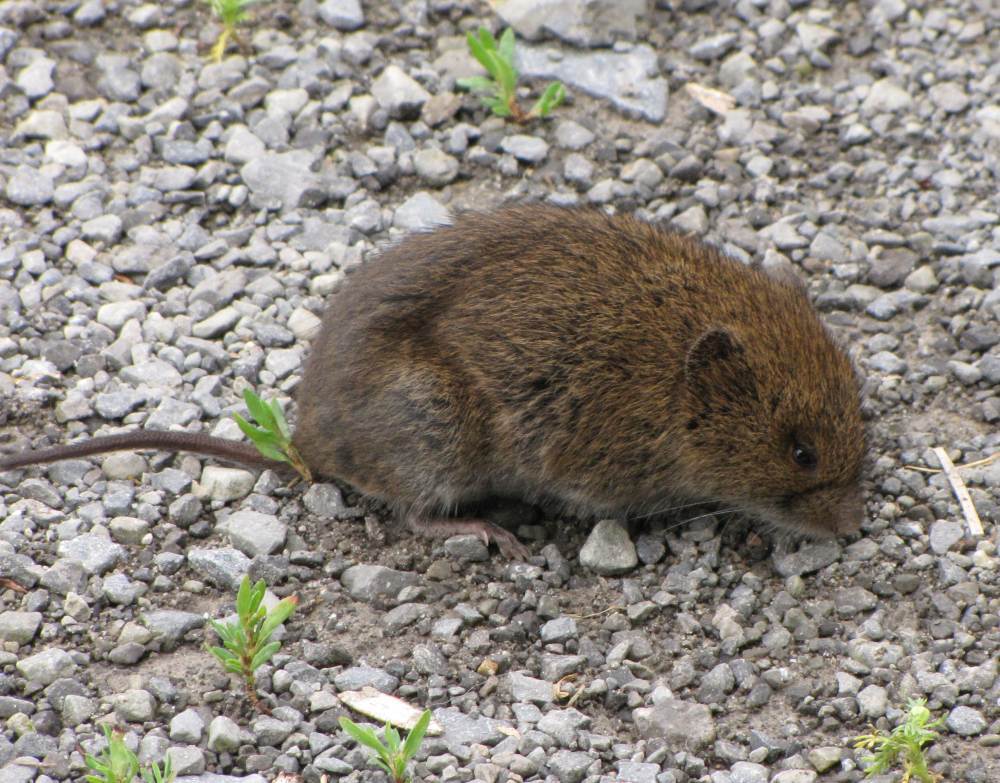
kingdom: Animalia
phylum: Chordata
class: Mammalia
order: Rodentia
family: Cricetidae
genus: Microtus
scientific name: Microtus pennsylvanicus
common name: Meadow vole
